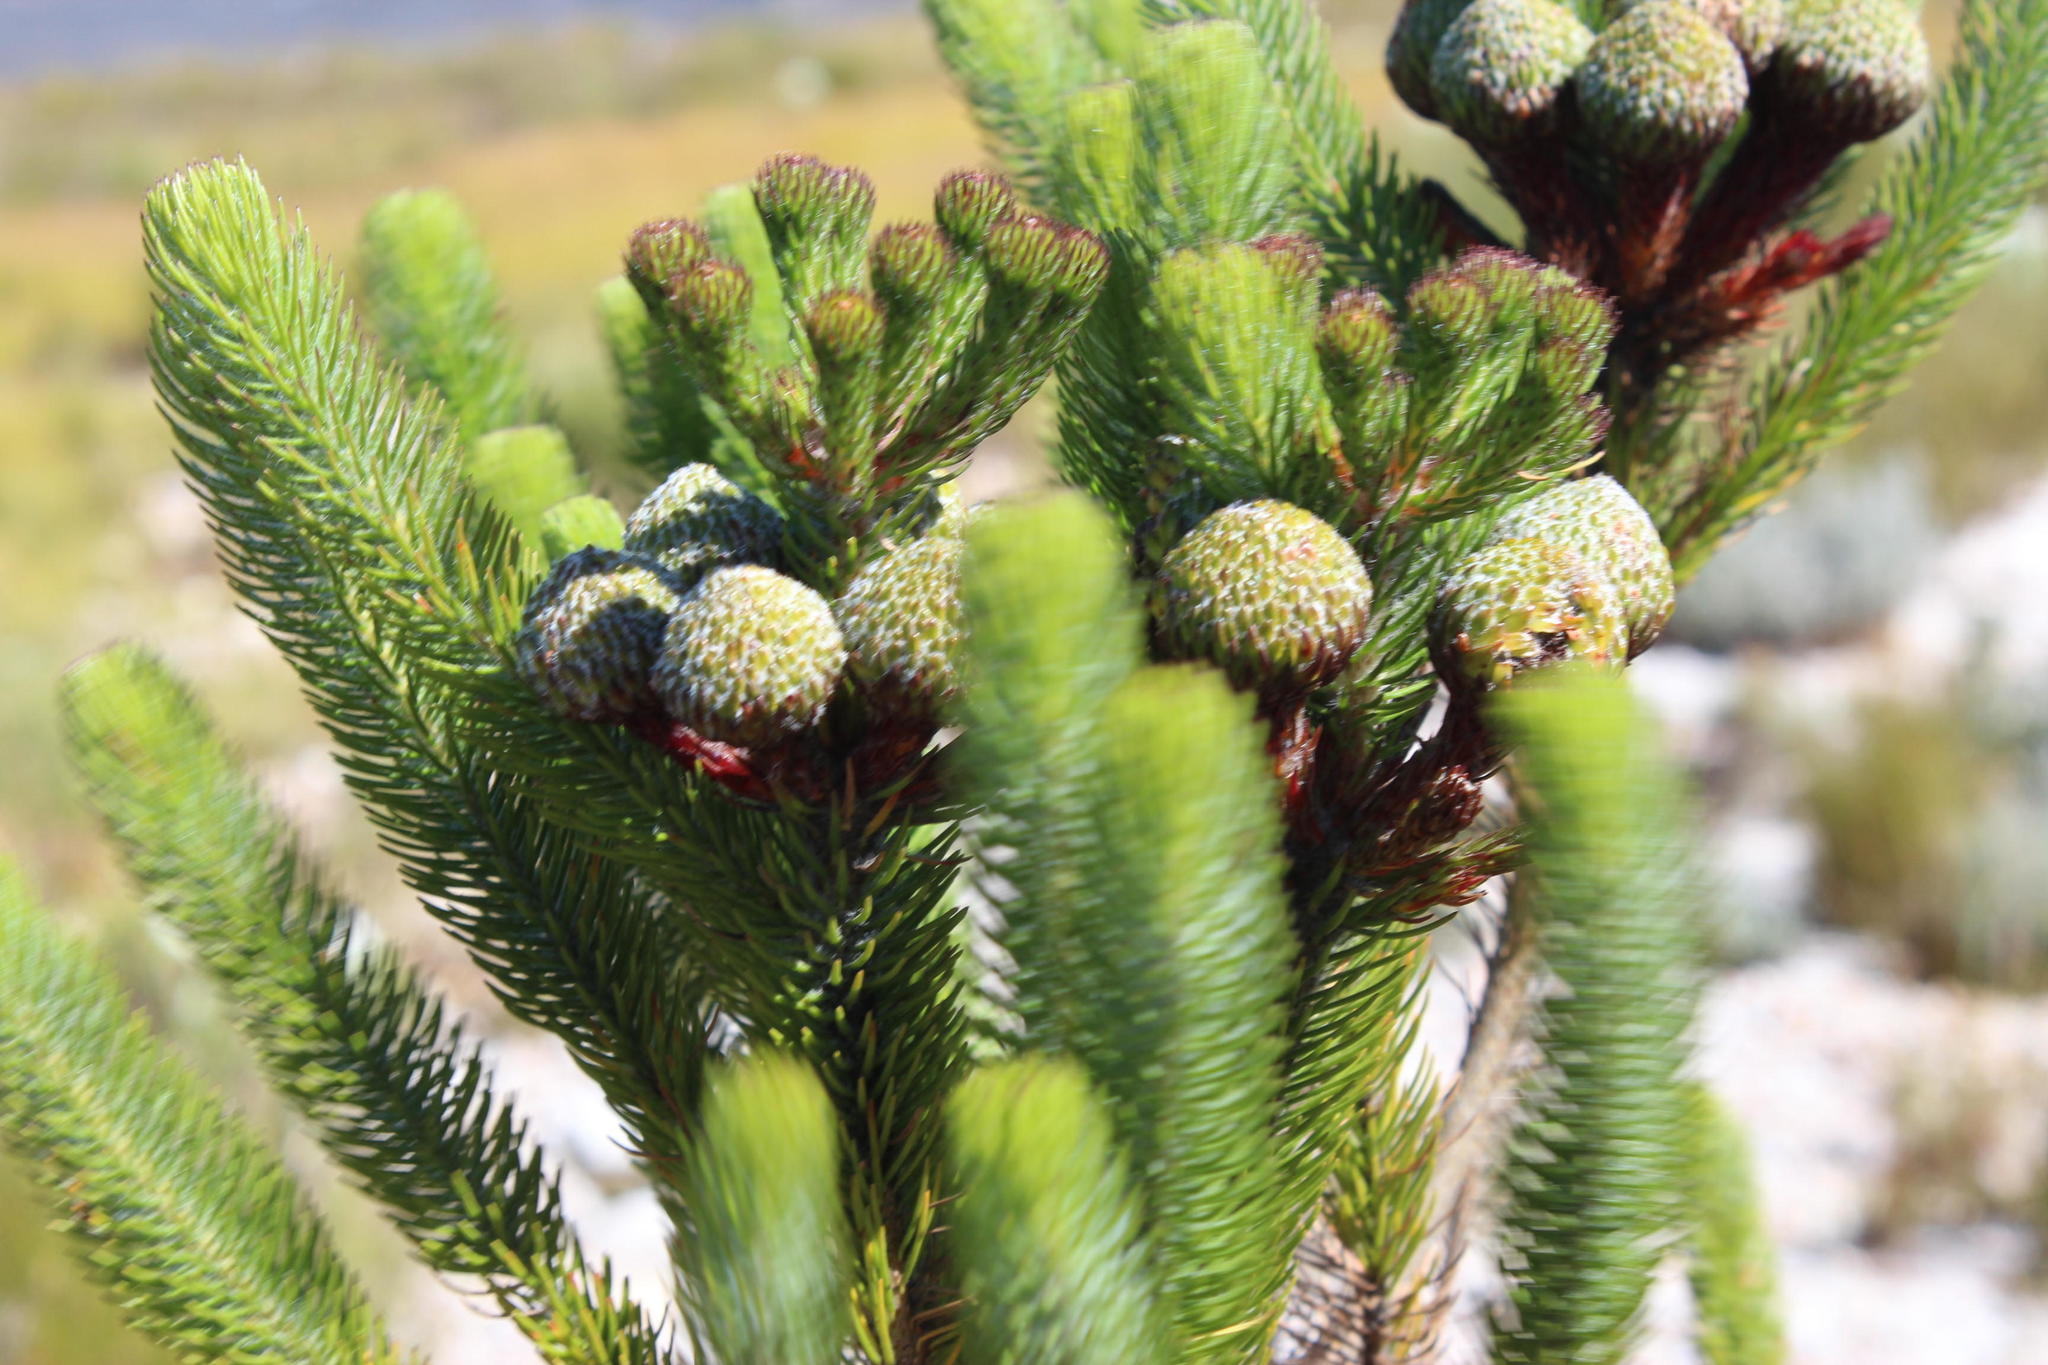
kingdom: Plantae
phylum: Tracheophyta
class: Magnoliopsida
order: Bruniales
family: Bruniaceae
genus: Berzelia
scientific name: Berzelia albiflora
